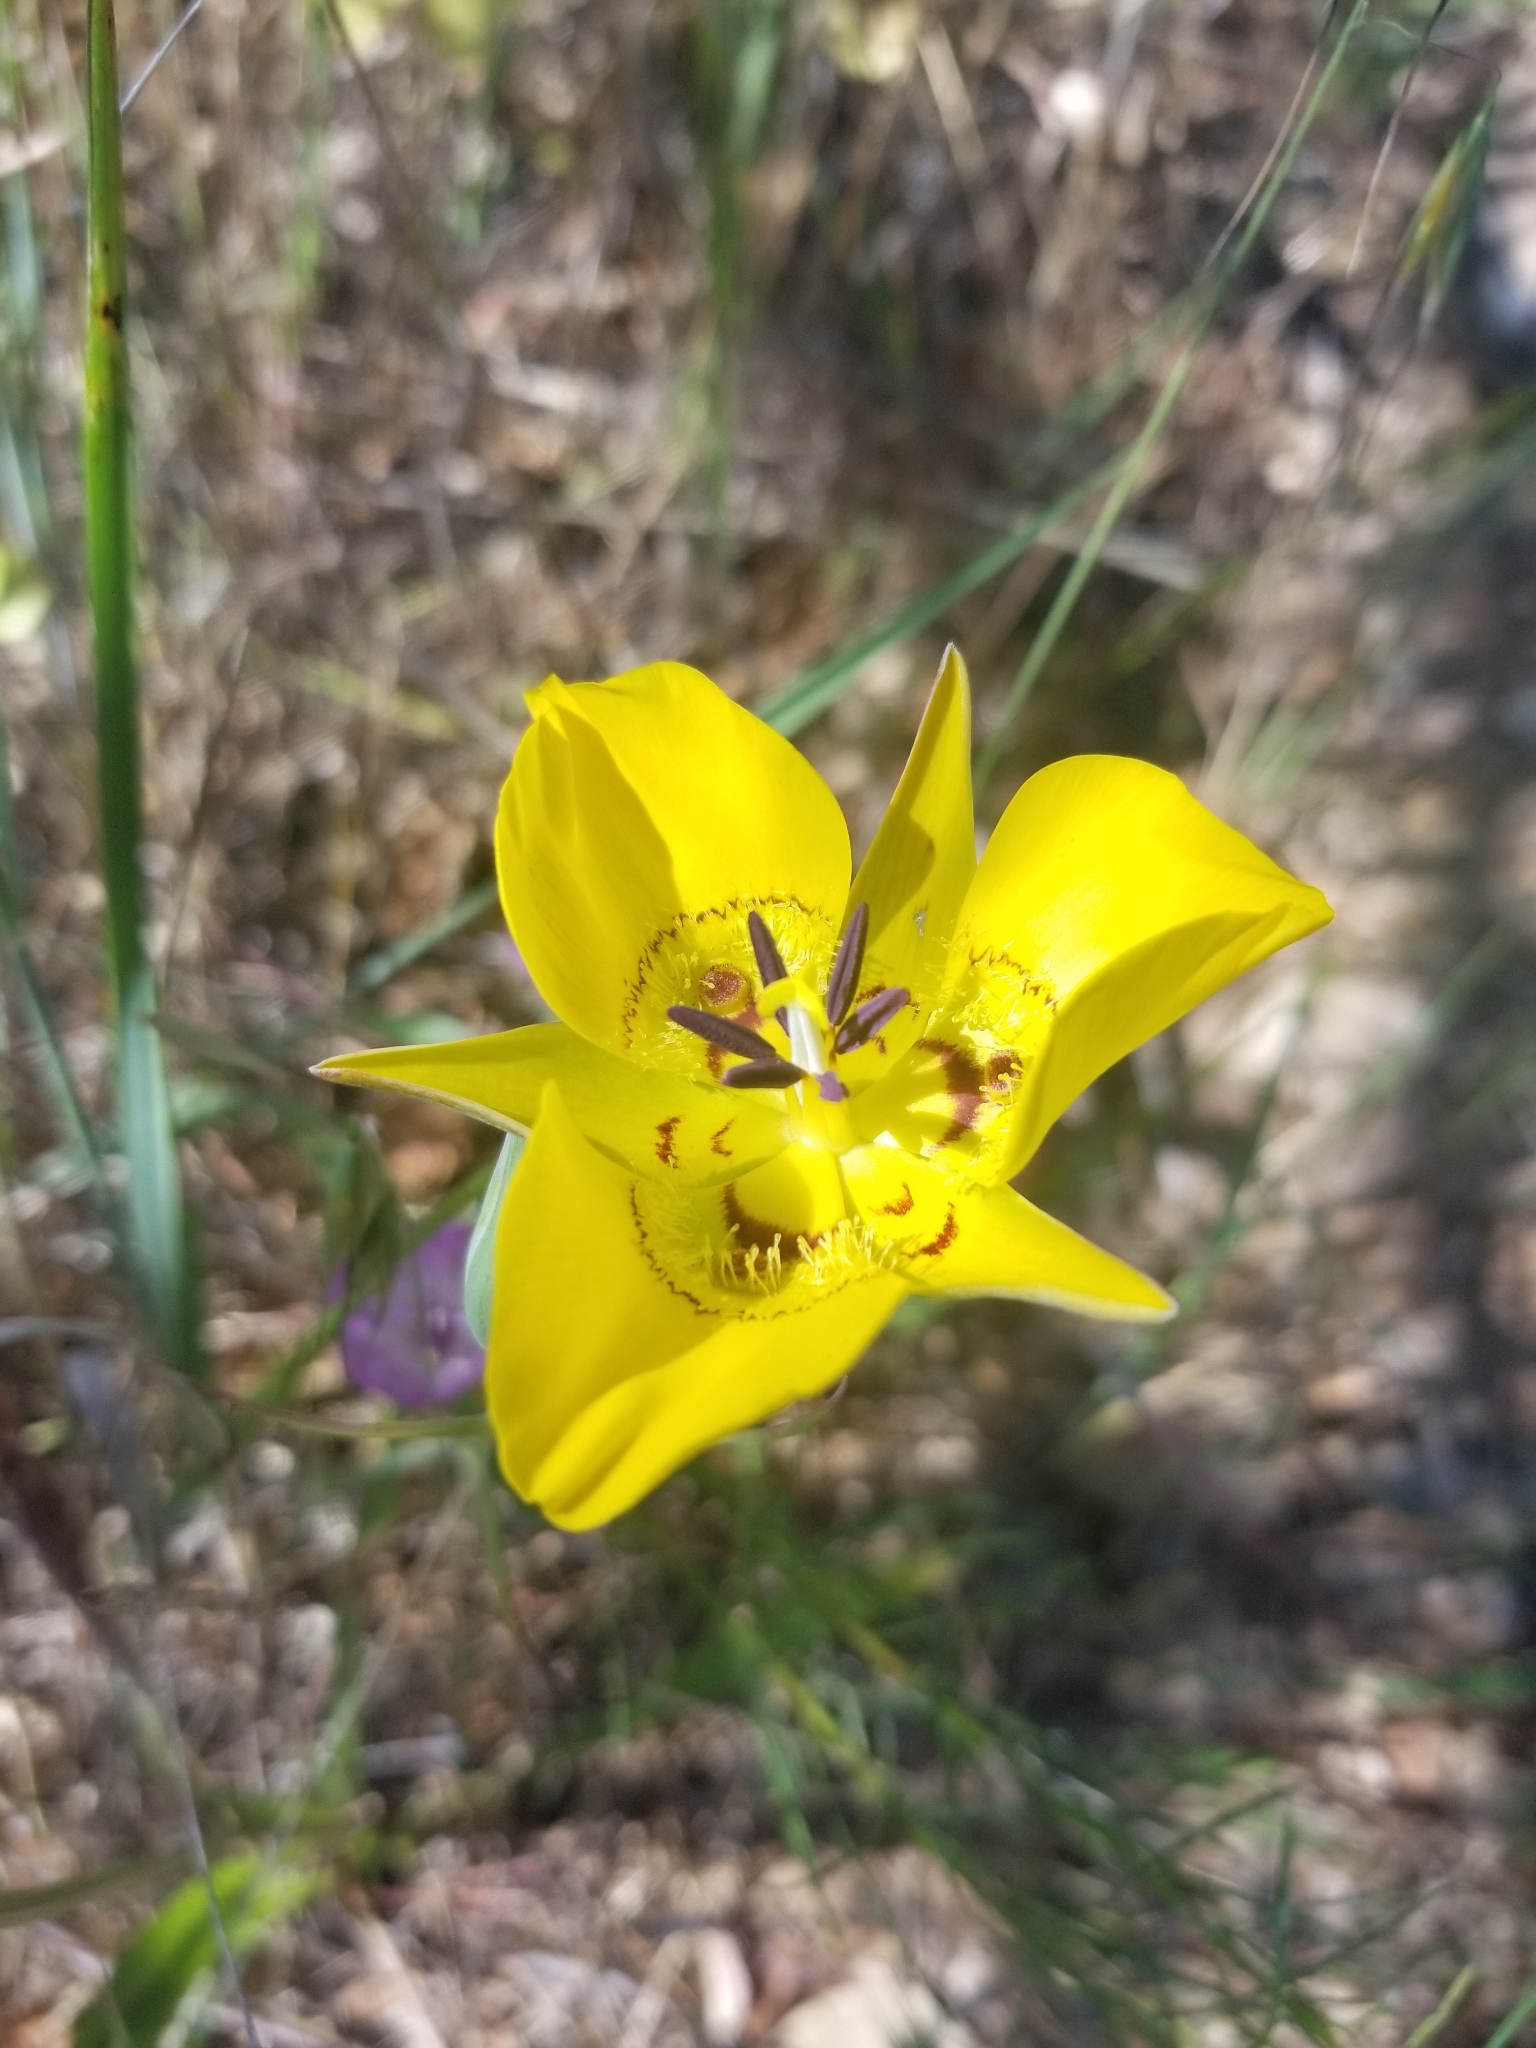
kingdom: Plantae
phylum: Tracheophyta
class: Liliopsida
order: Liliales
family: Liliaceae
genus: Calochortus
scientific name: Calochortus clavatus
